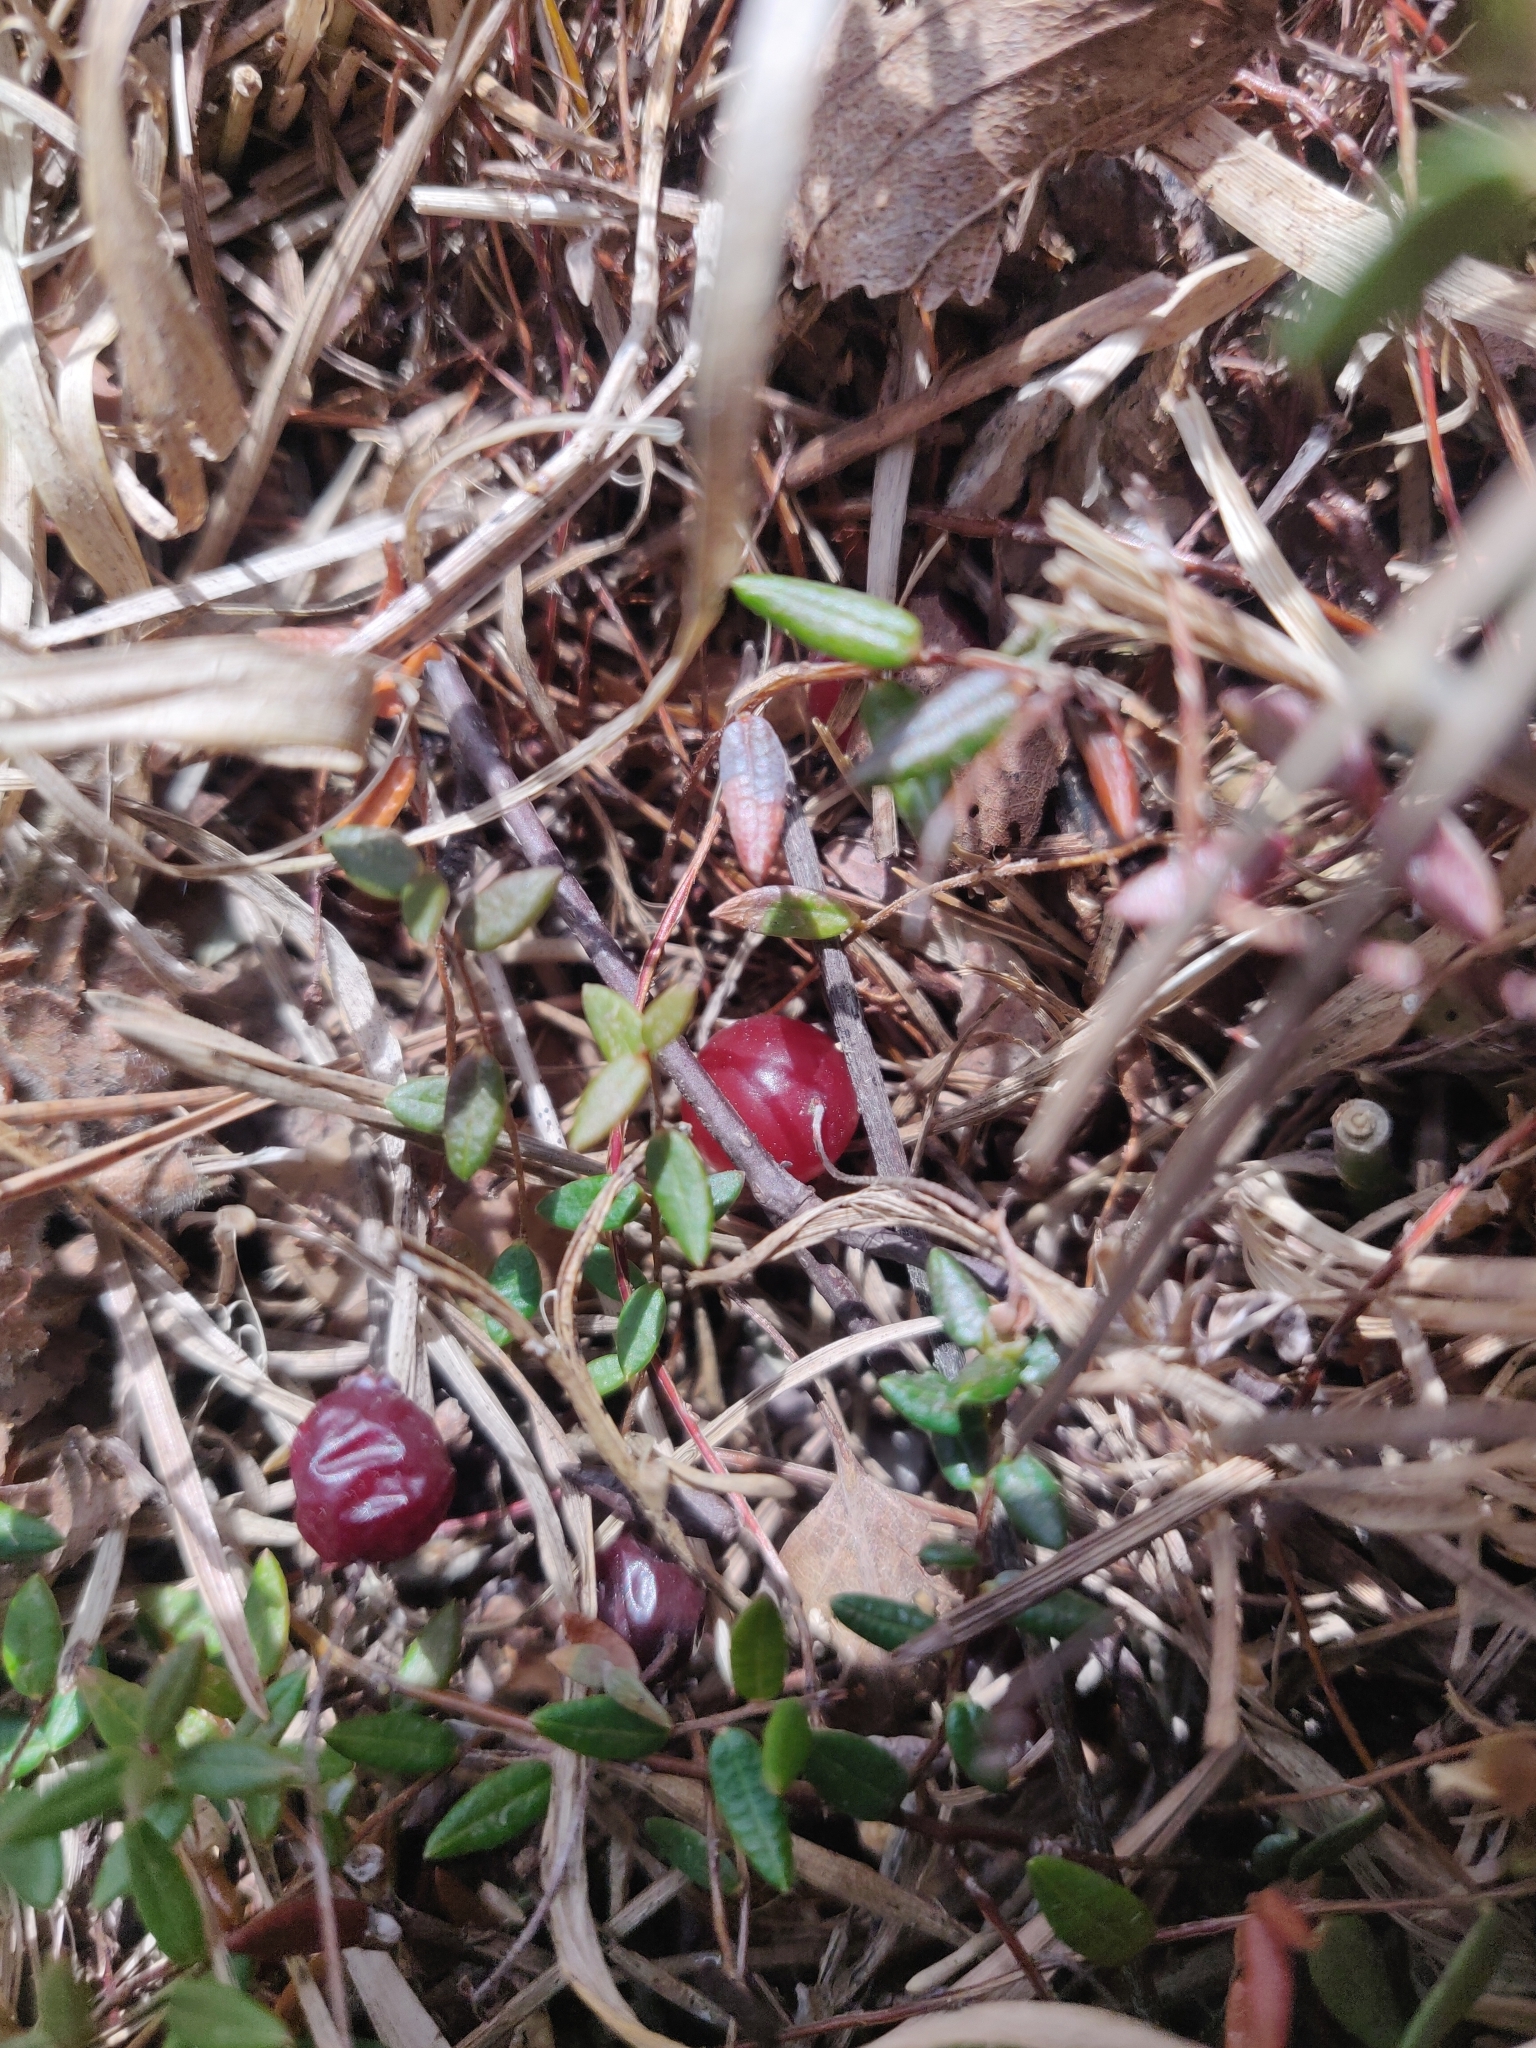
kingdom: Plantae
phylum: Tracheophyta
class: Magnoliopsida
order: Ericales
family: Ericaceae
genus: Vaccinium
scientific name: Vaccinium oxycoccos
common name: Cranberry
